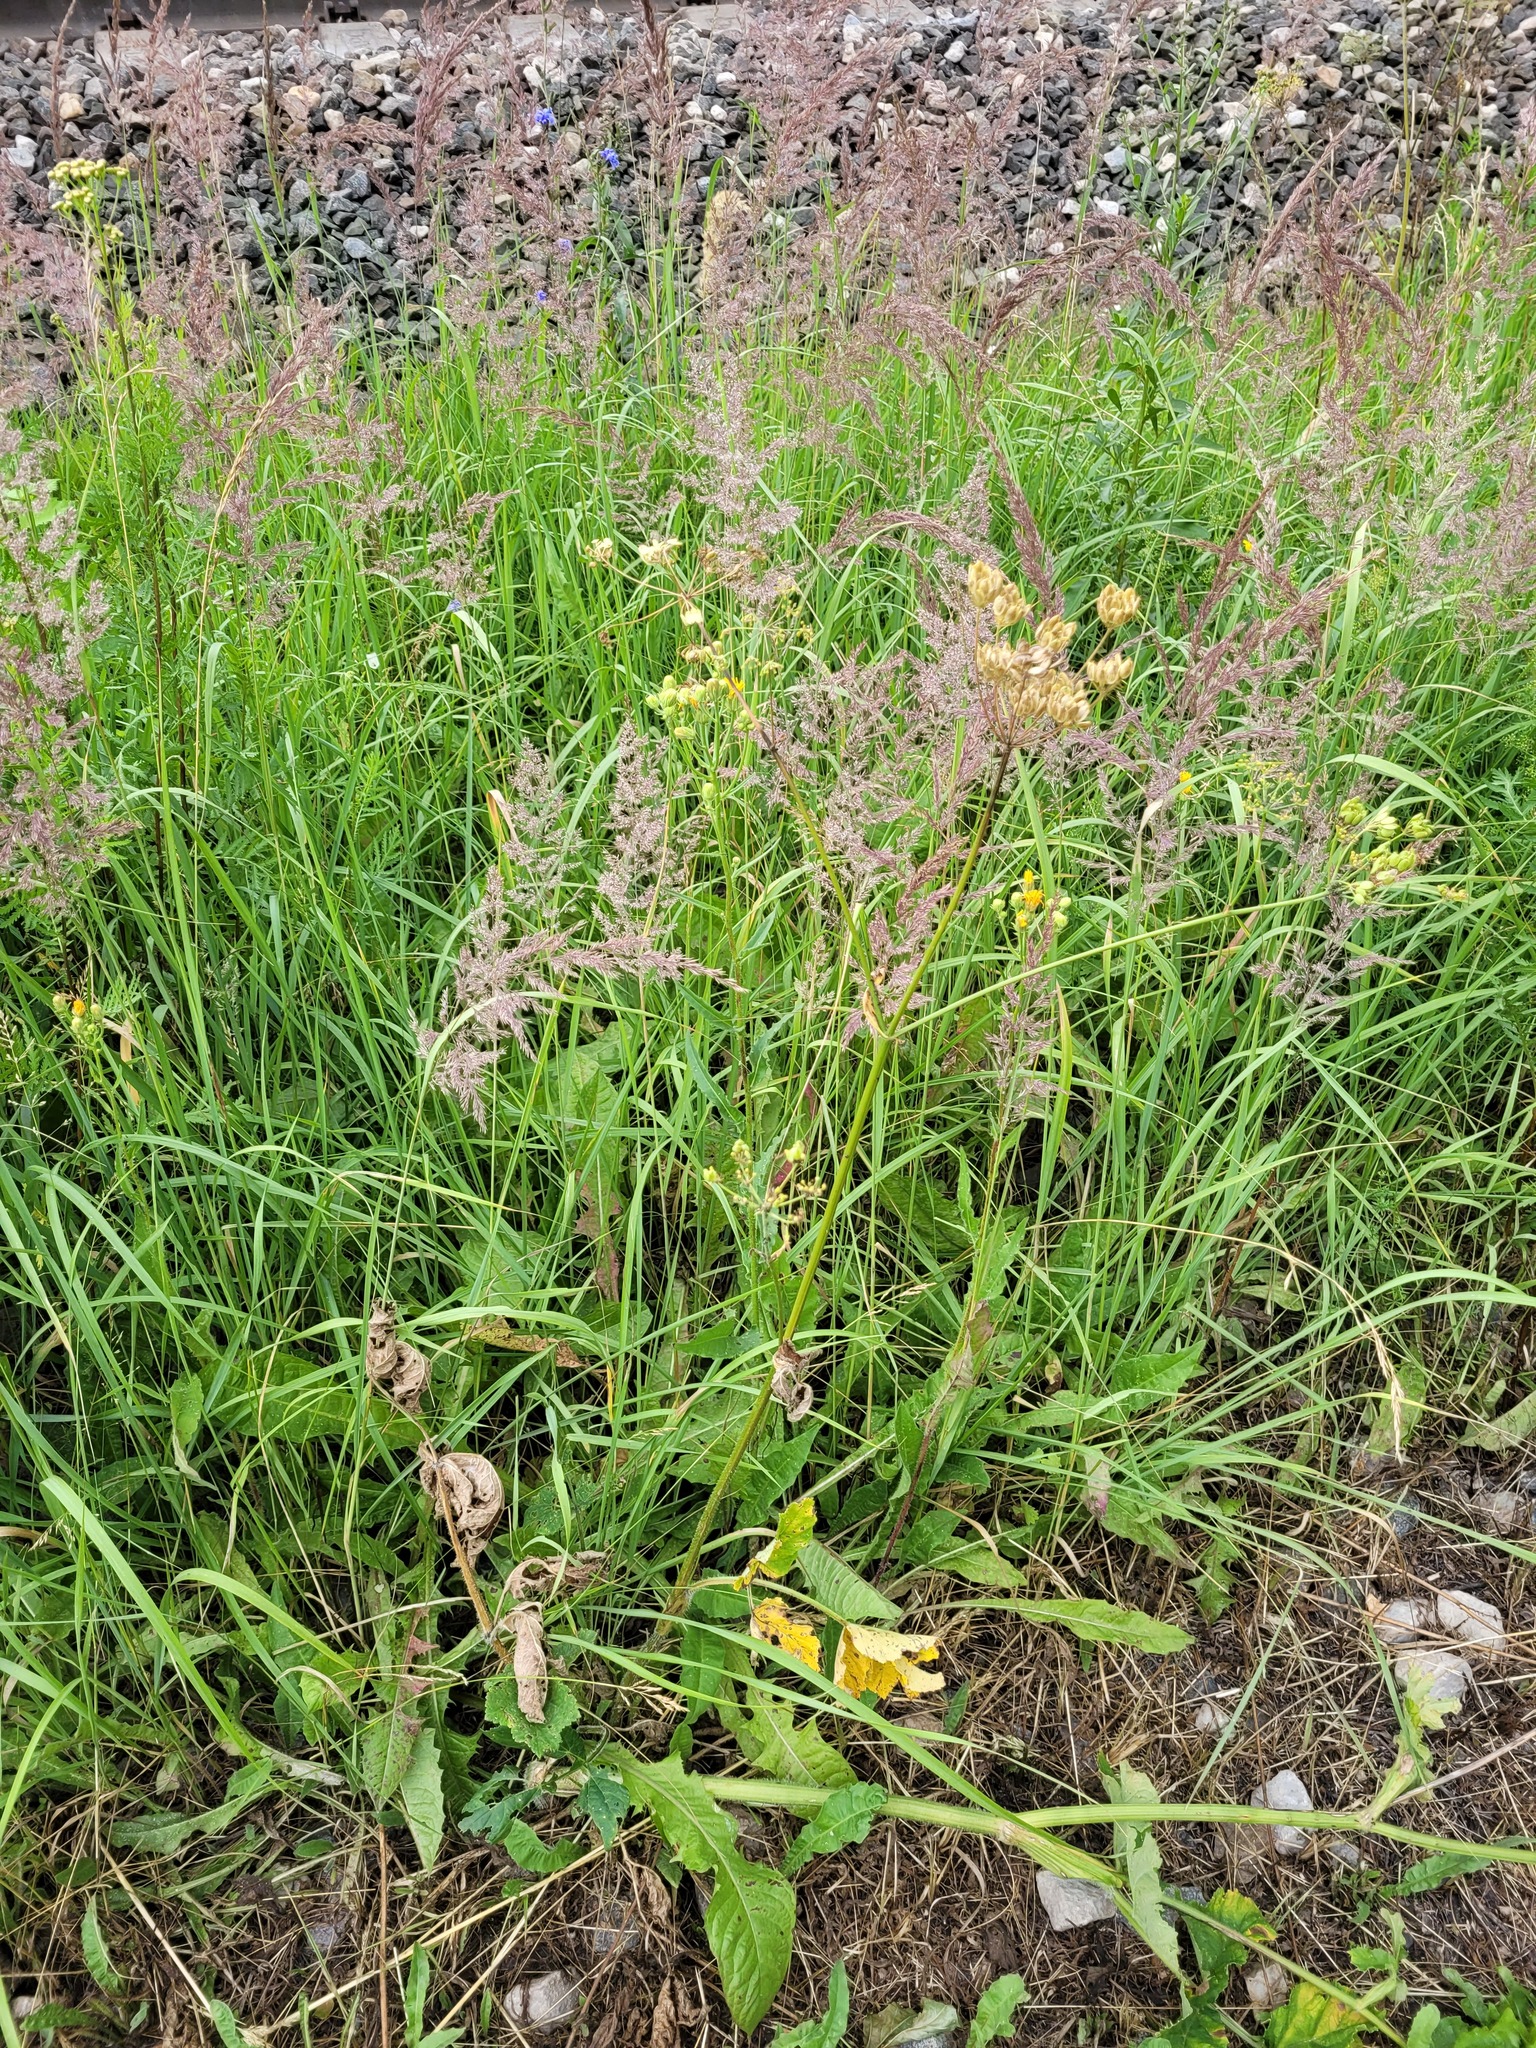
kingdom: Plantae
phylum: Tracheophyta
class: Magnoliopsida
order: Apiales
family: Apiaceae
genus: Heracleum
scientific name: Heracleum sphondylium
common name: Hogweed
